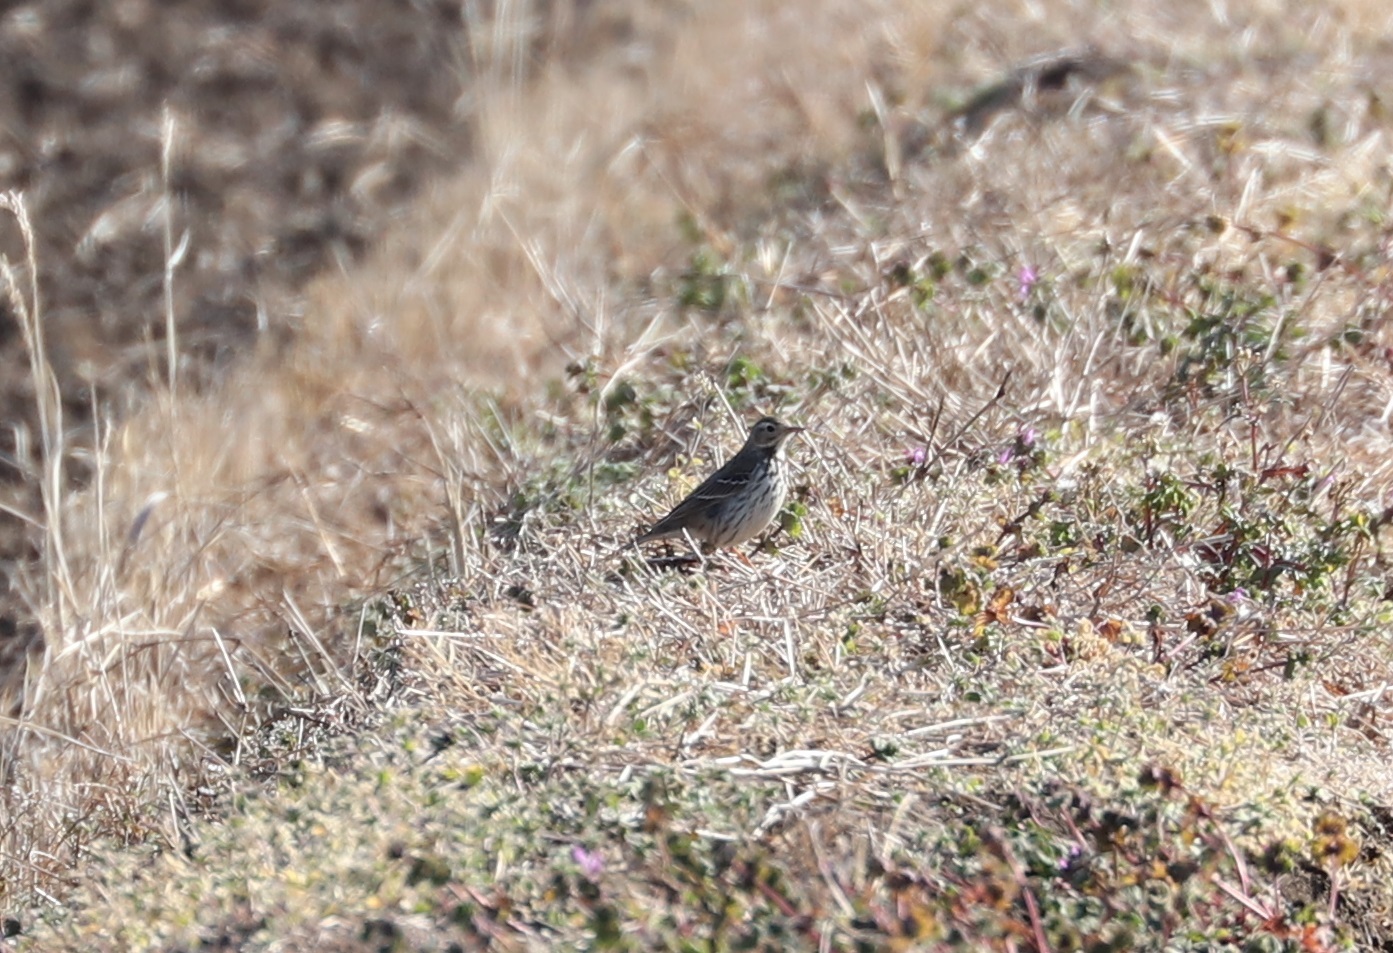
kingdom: Animalia
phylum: Chordata
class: Aves
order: Passeriformes
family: Motacillidae
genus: Anthus
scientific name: Anthus rubescens
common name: Buff-bellied pipit
